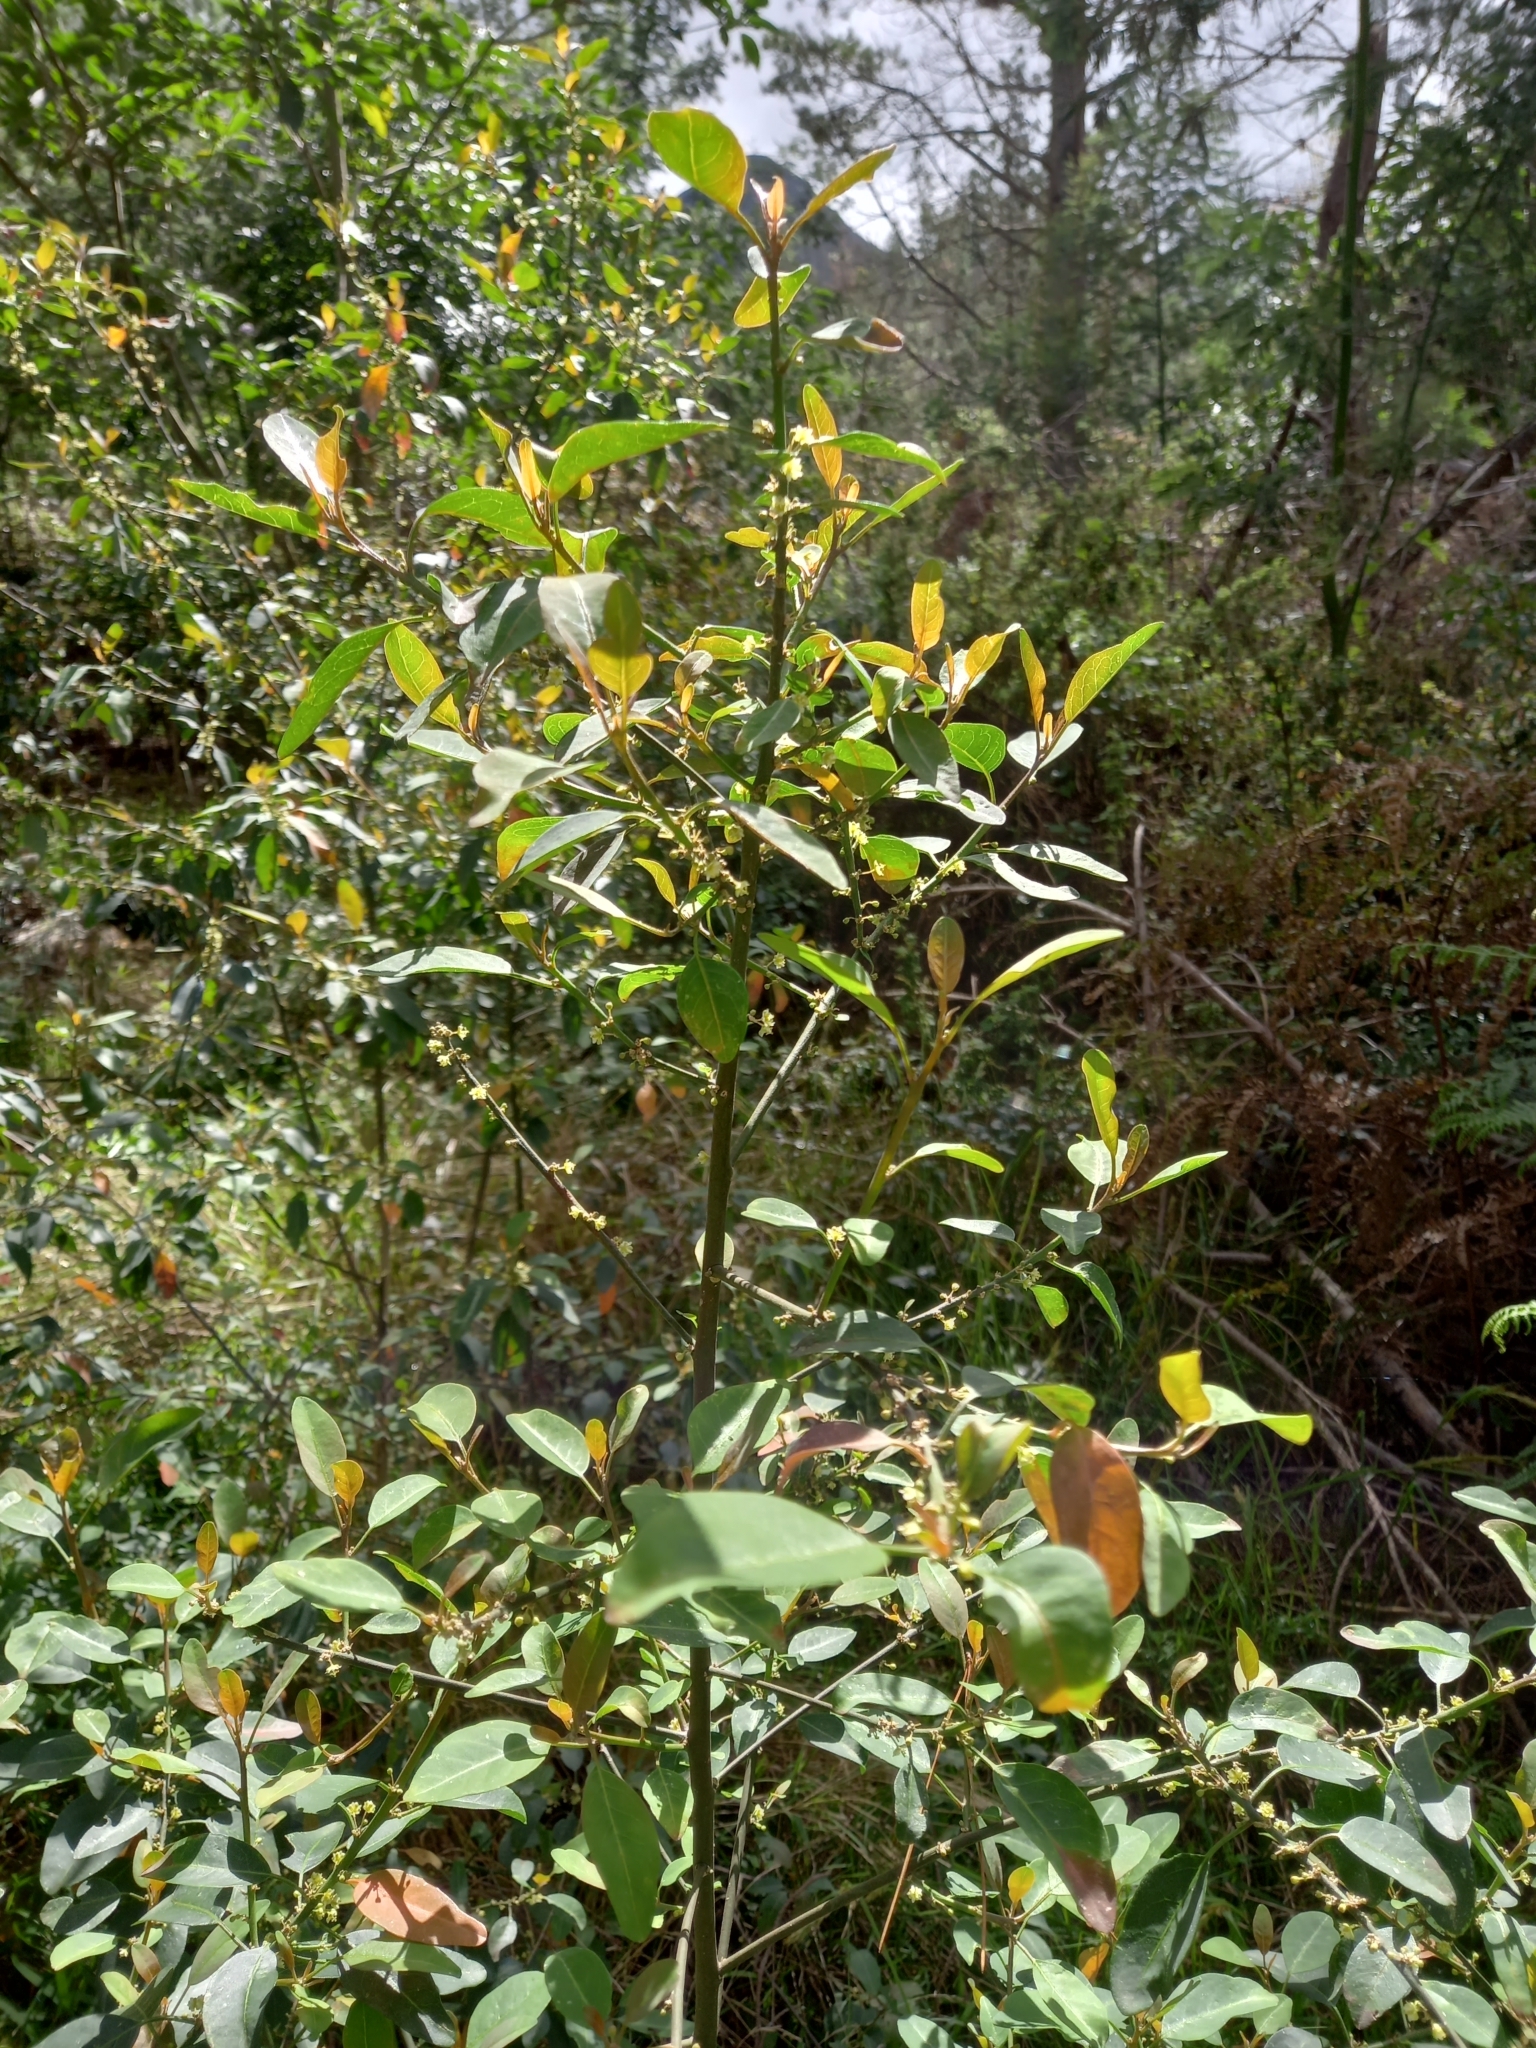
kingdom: Plantae
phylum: Tracheophyta
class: Magnoliopsida
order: Malpighiales
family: Peraceae
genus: Clutia
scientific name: Clutia pulchella
